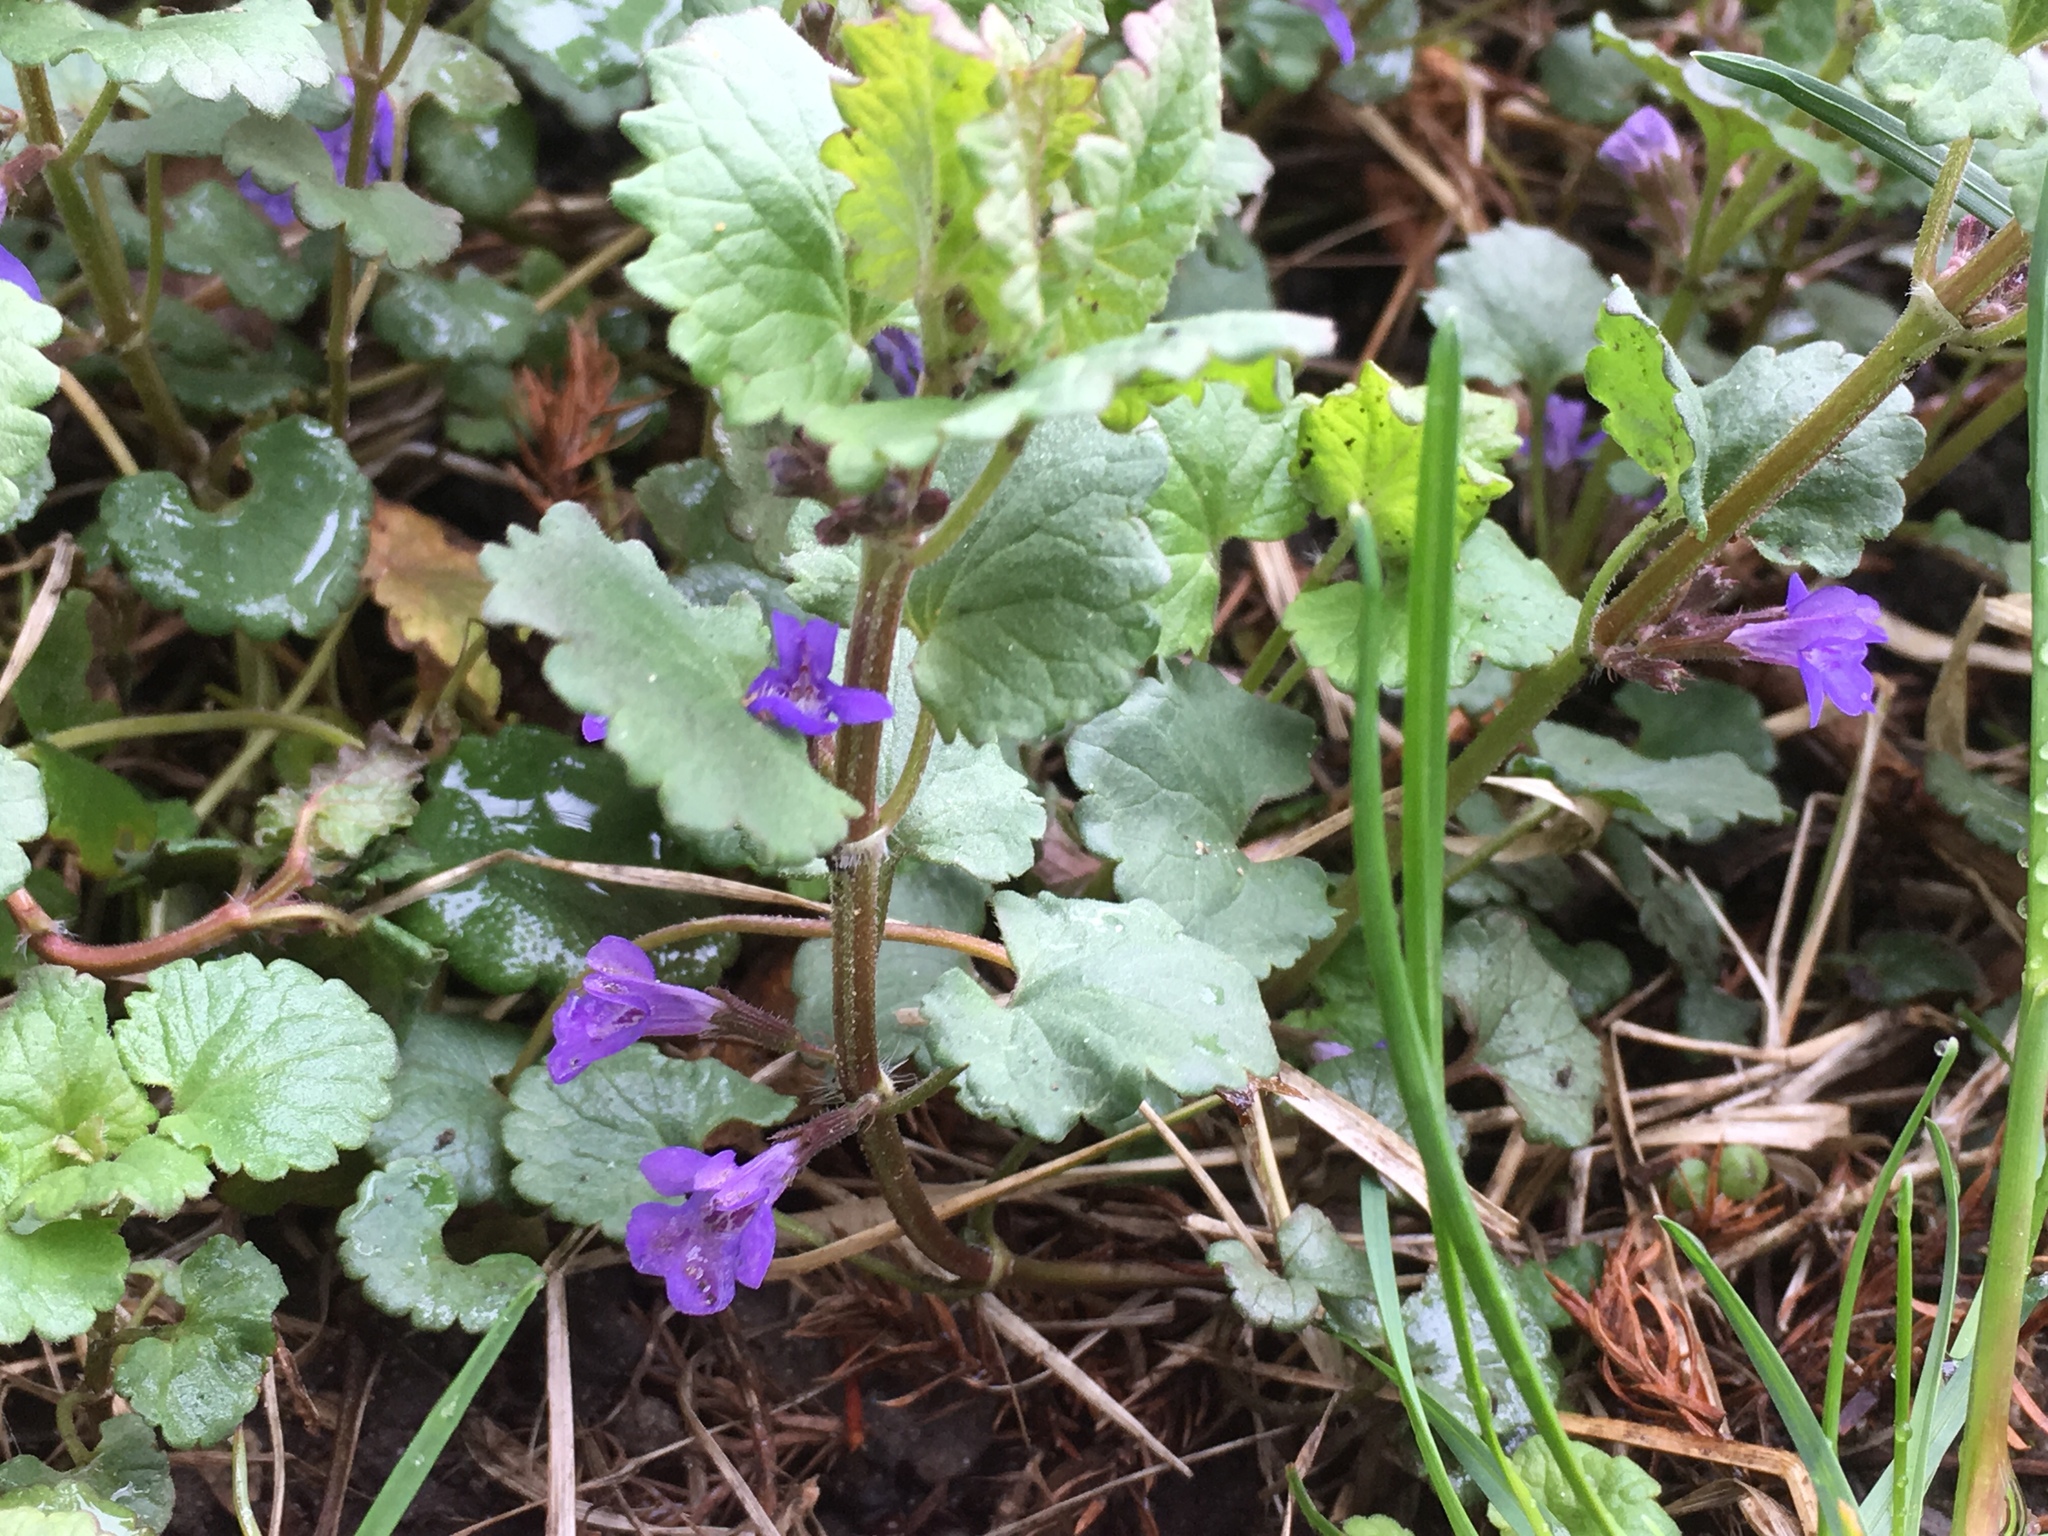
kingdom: Plantae
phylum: Tracheophyta
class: Magnoliopsida
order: Lamiales
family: Lamiaceae
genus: Glechoma
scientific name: Glechoma hederacea
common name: Ground ivy
